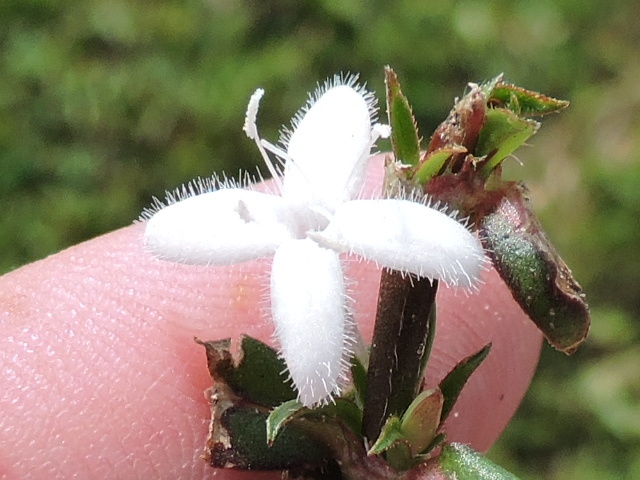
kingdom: Plantae
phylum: Tracheophyta
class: Magnoliopsida
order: Gentianales
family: Rubiaceae
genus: Diodia
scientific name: Diodia virginiana
